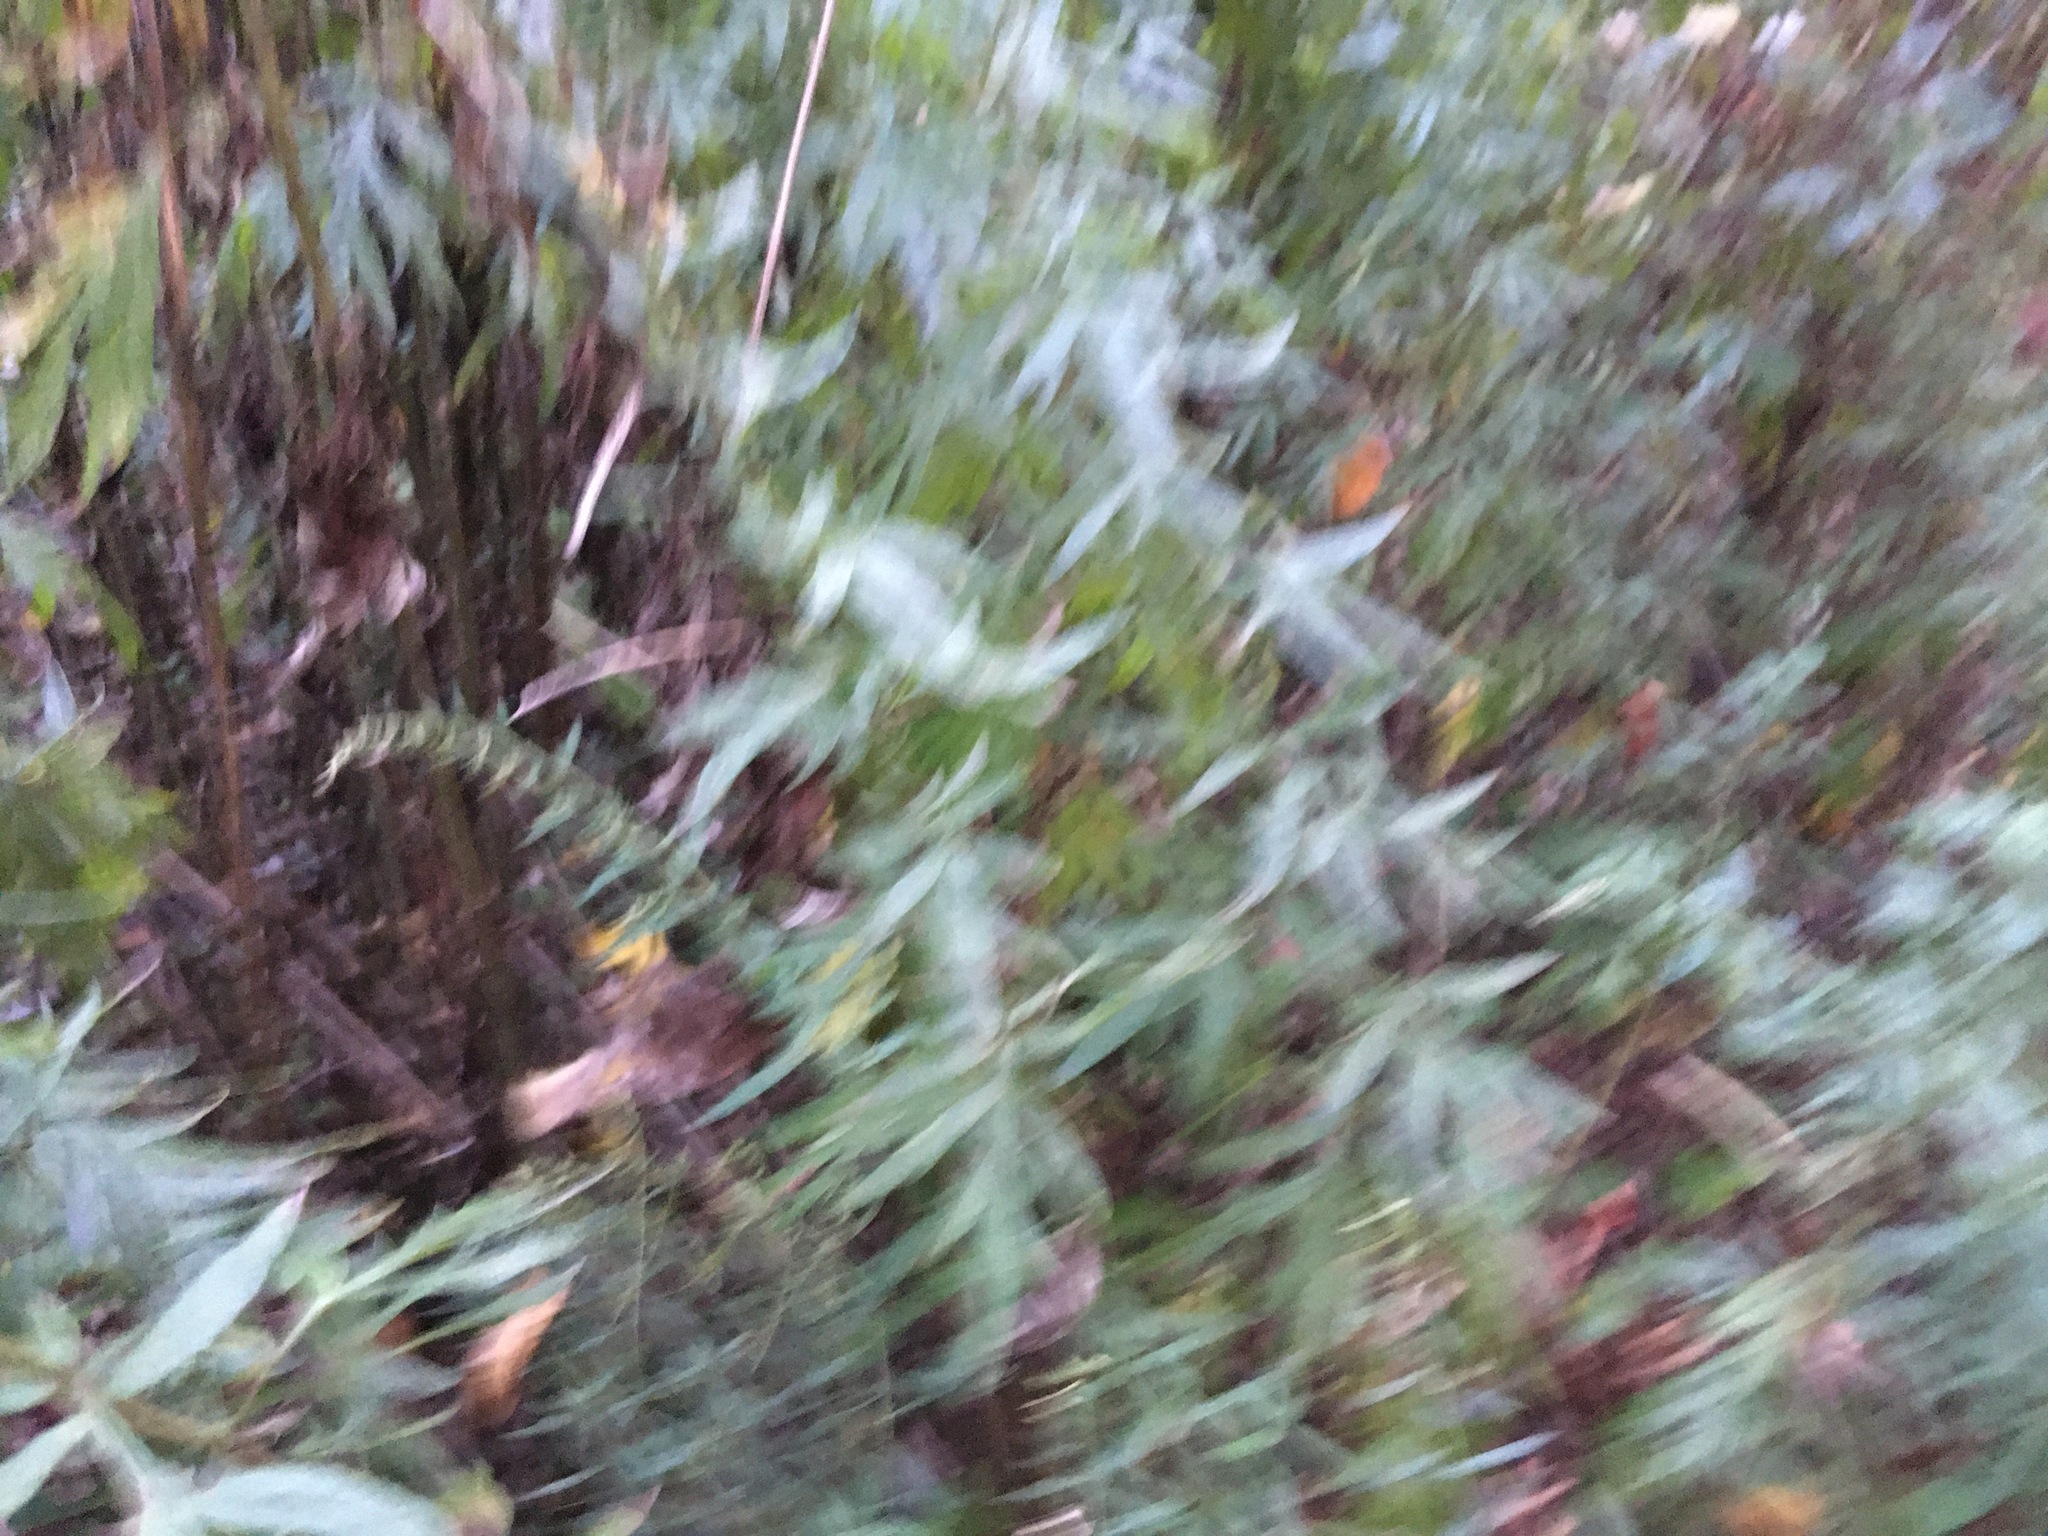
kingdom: Plantae
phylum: Tracheophyta
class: Magnoliopsida
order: Asterales
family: Asteraceae
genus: Artemisia
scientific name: Artemisia vulgaris
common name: Mugwort
